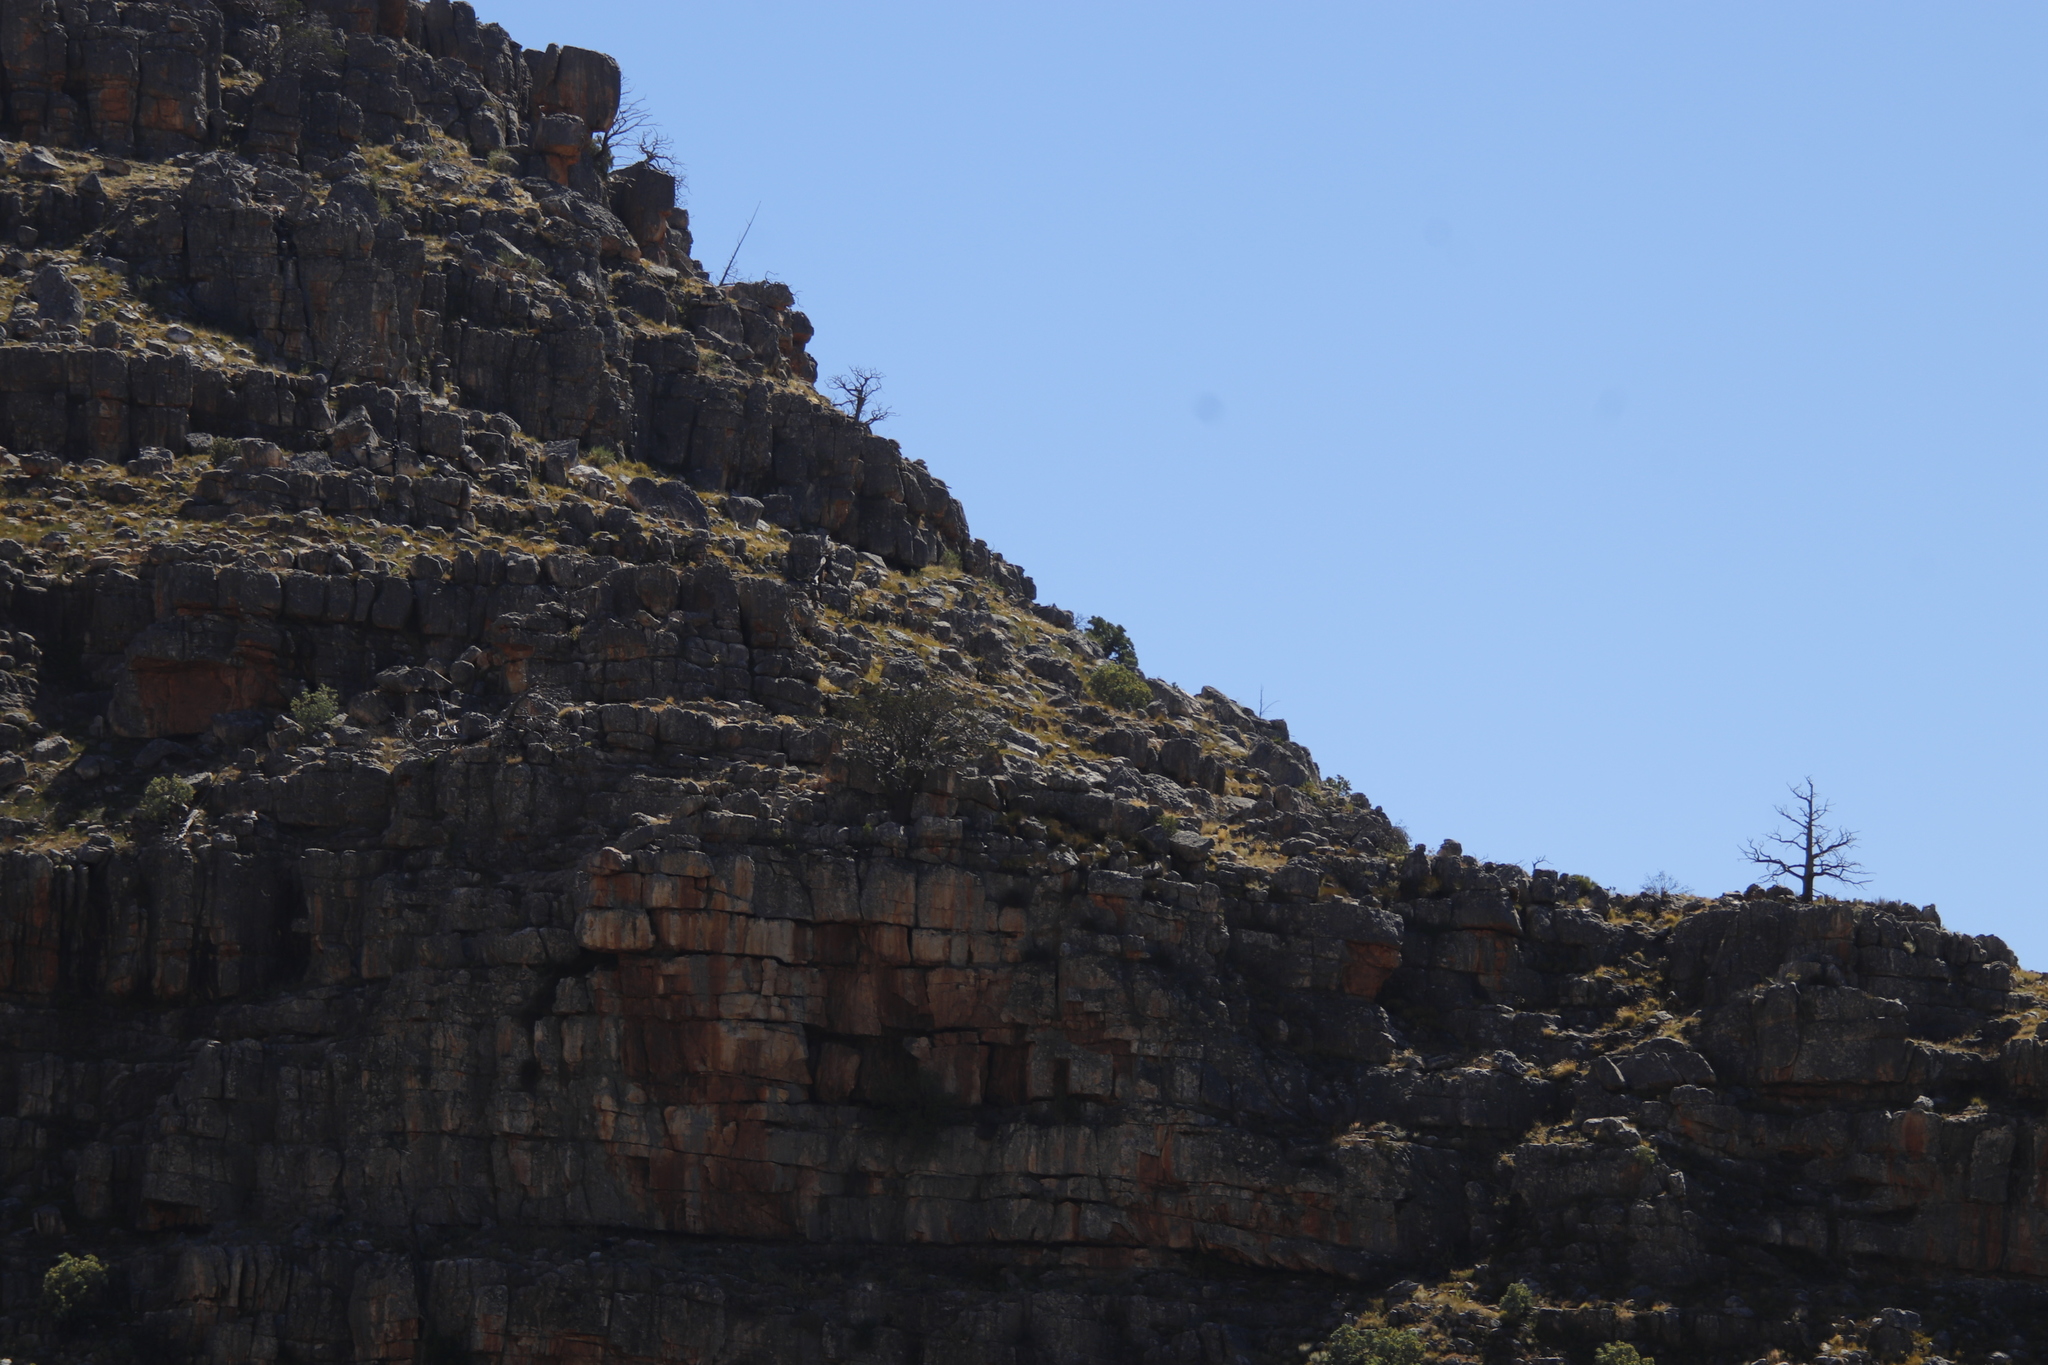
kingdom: Plantae
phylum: Tracheophyta
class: Pinopsida
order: Pinales
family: Cupressaceae
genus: Widdringtonia
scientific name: Widdringtonia nodiflora
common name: Cape cypress
